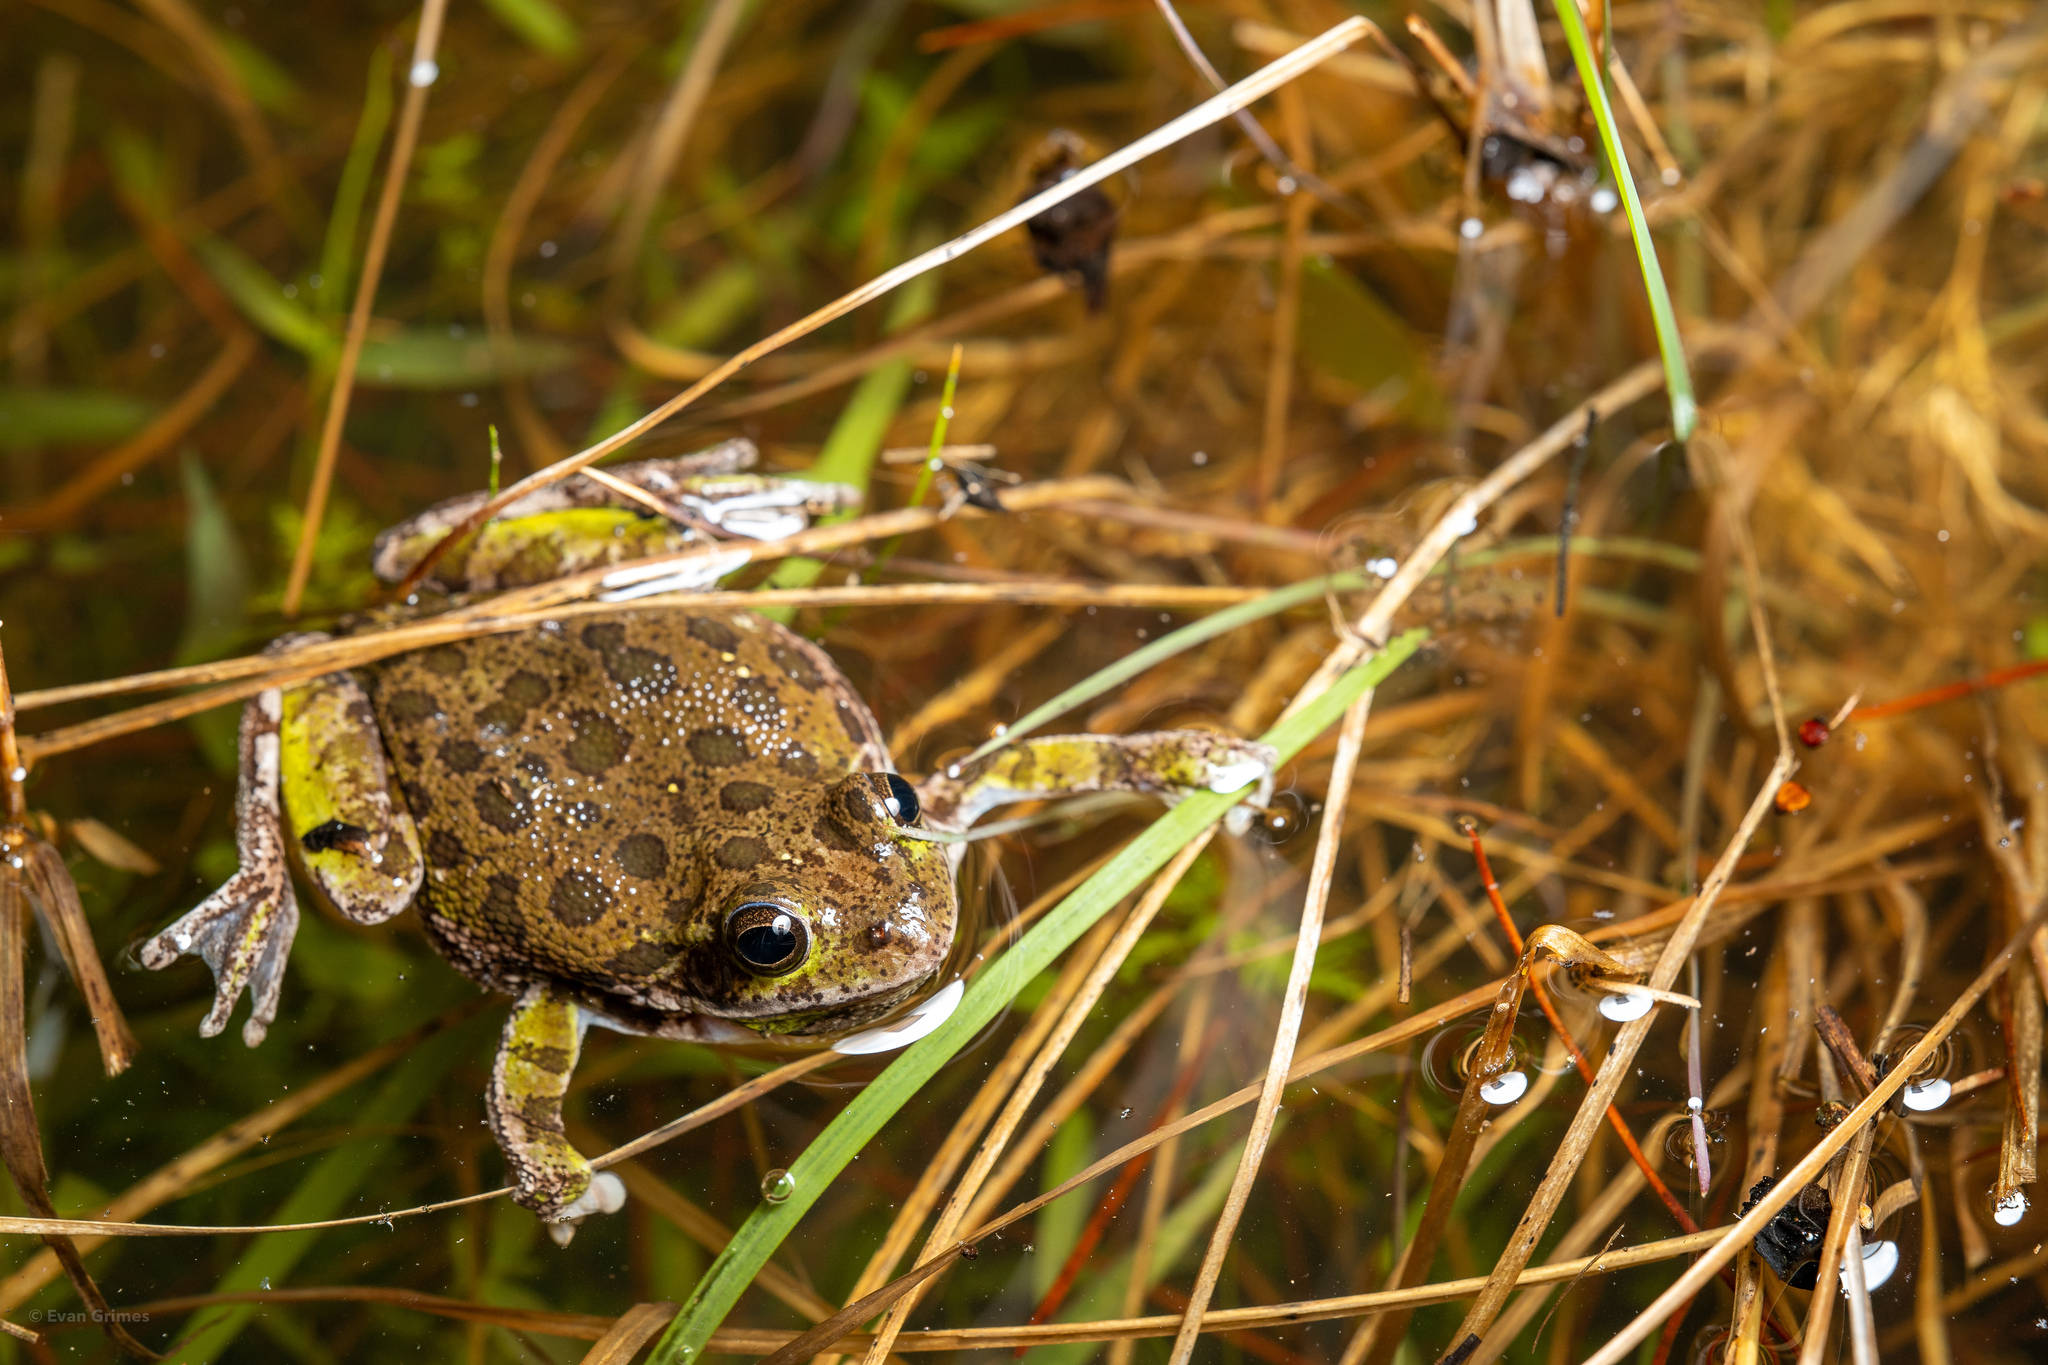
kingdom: Animalia
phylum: Chordata
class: Amphibia
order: Anura
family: Hylidae
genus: Dryophytes
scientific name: Dryophytes gratiosus
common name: Barking treefrog
